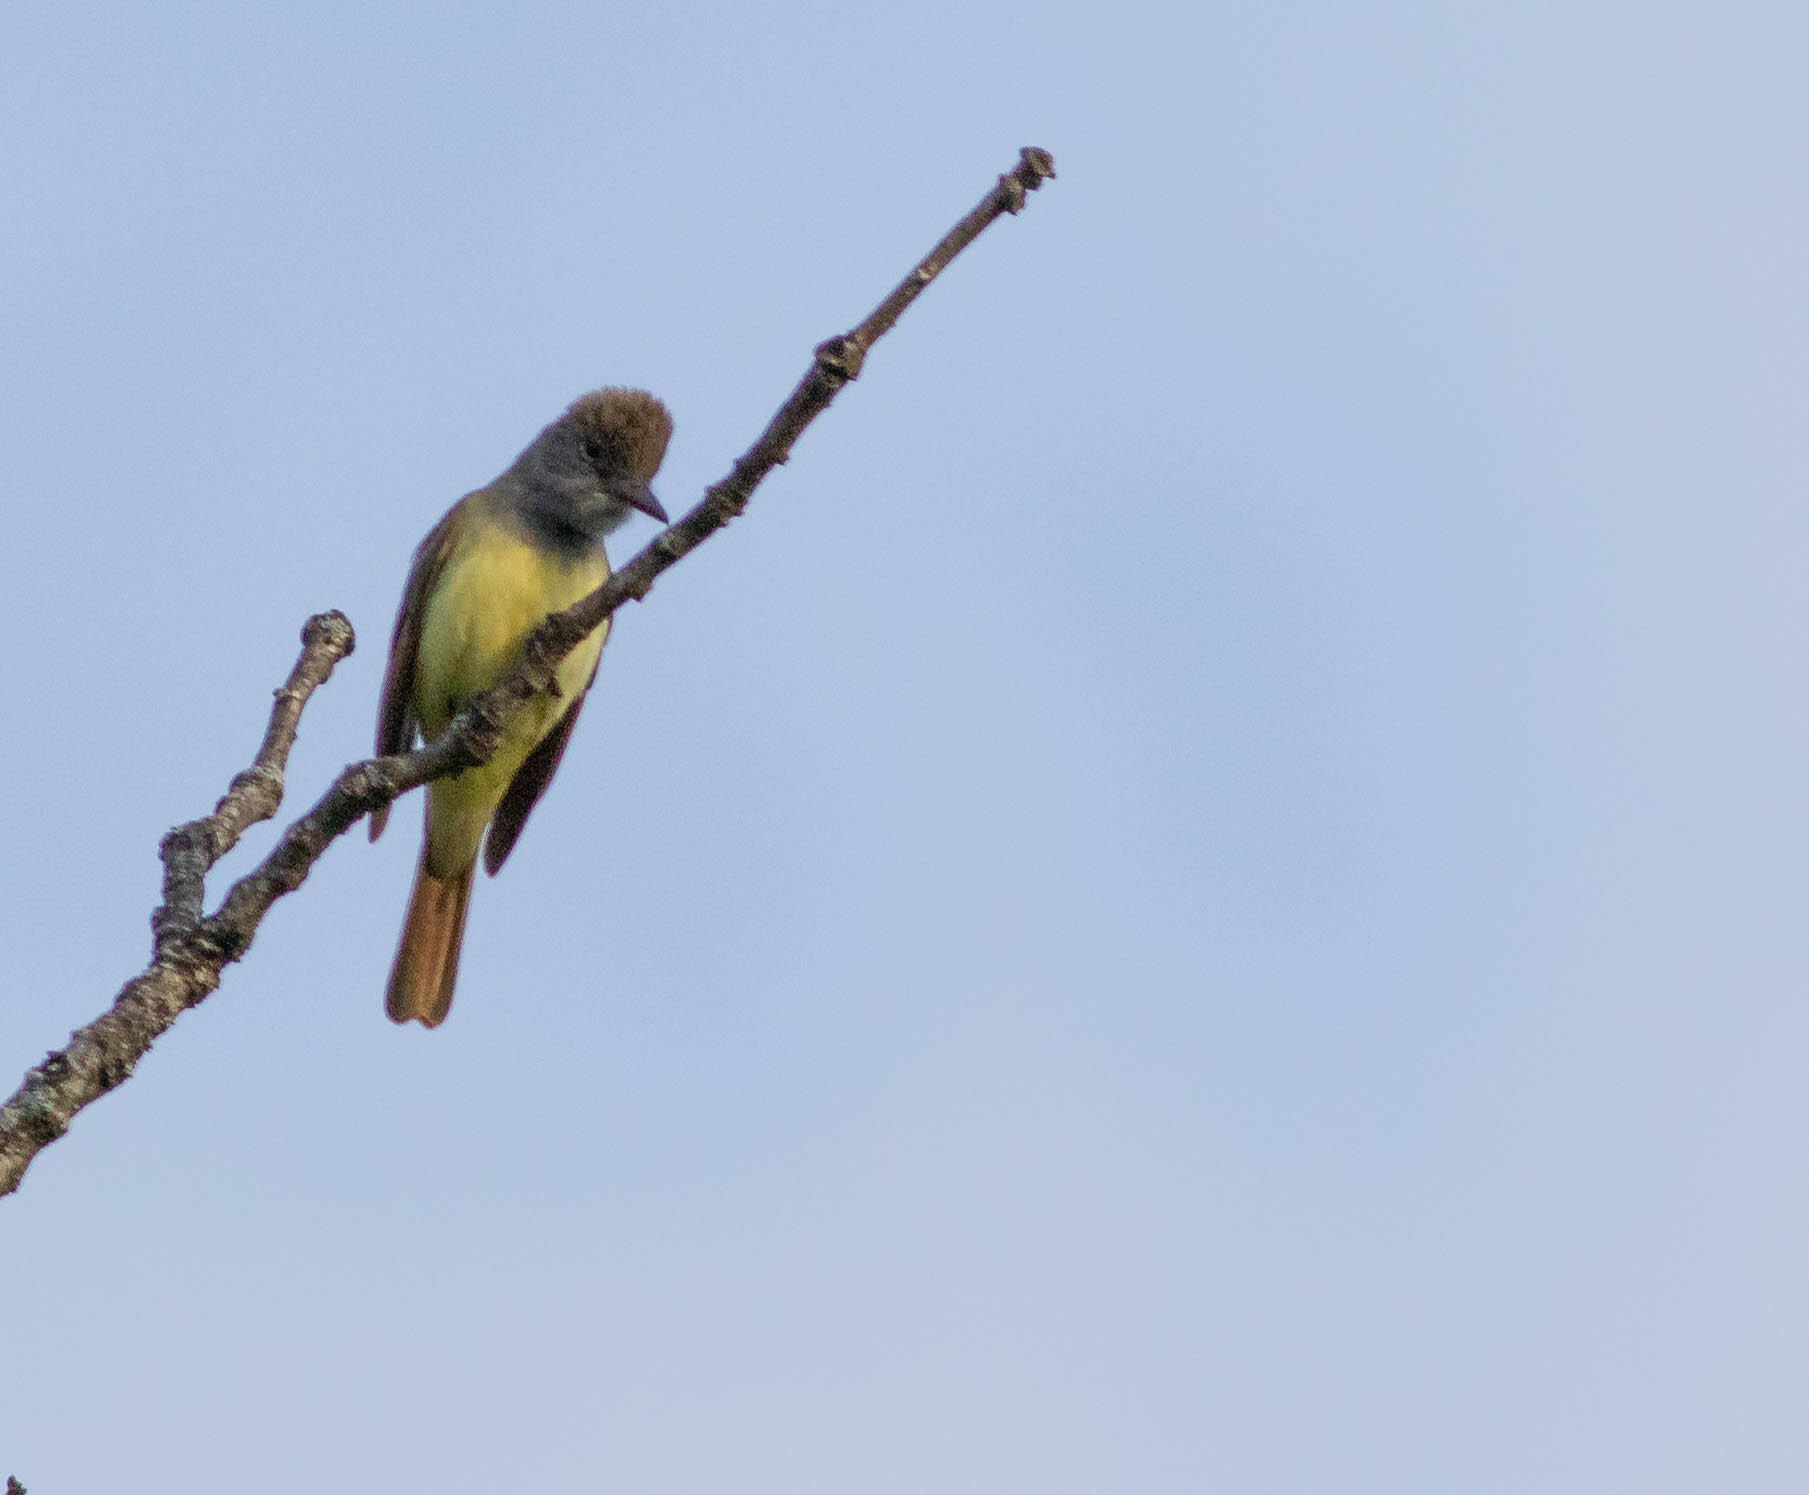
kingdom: Animalia
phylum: Chordata
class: Aves
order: Passeriformes
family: Tyrannidae
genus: Myiarchus
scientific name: Myiarchus crinitus
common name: Great crested flycatcher
